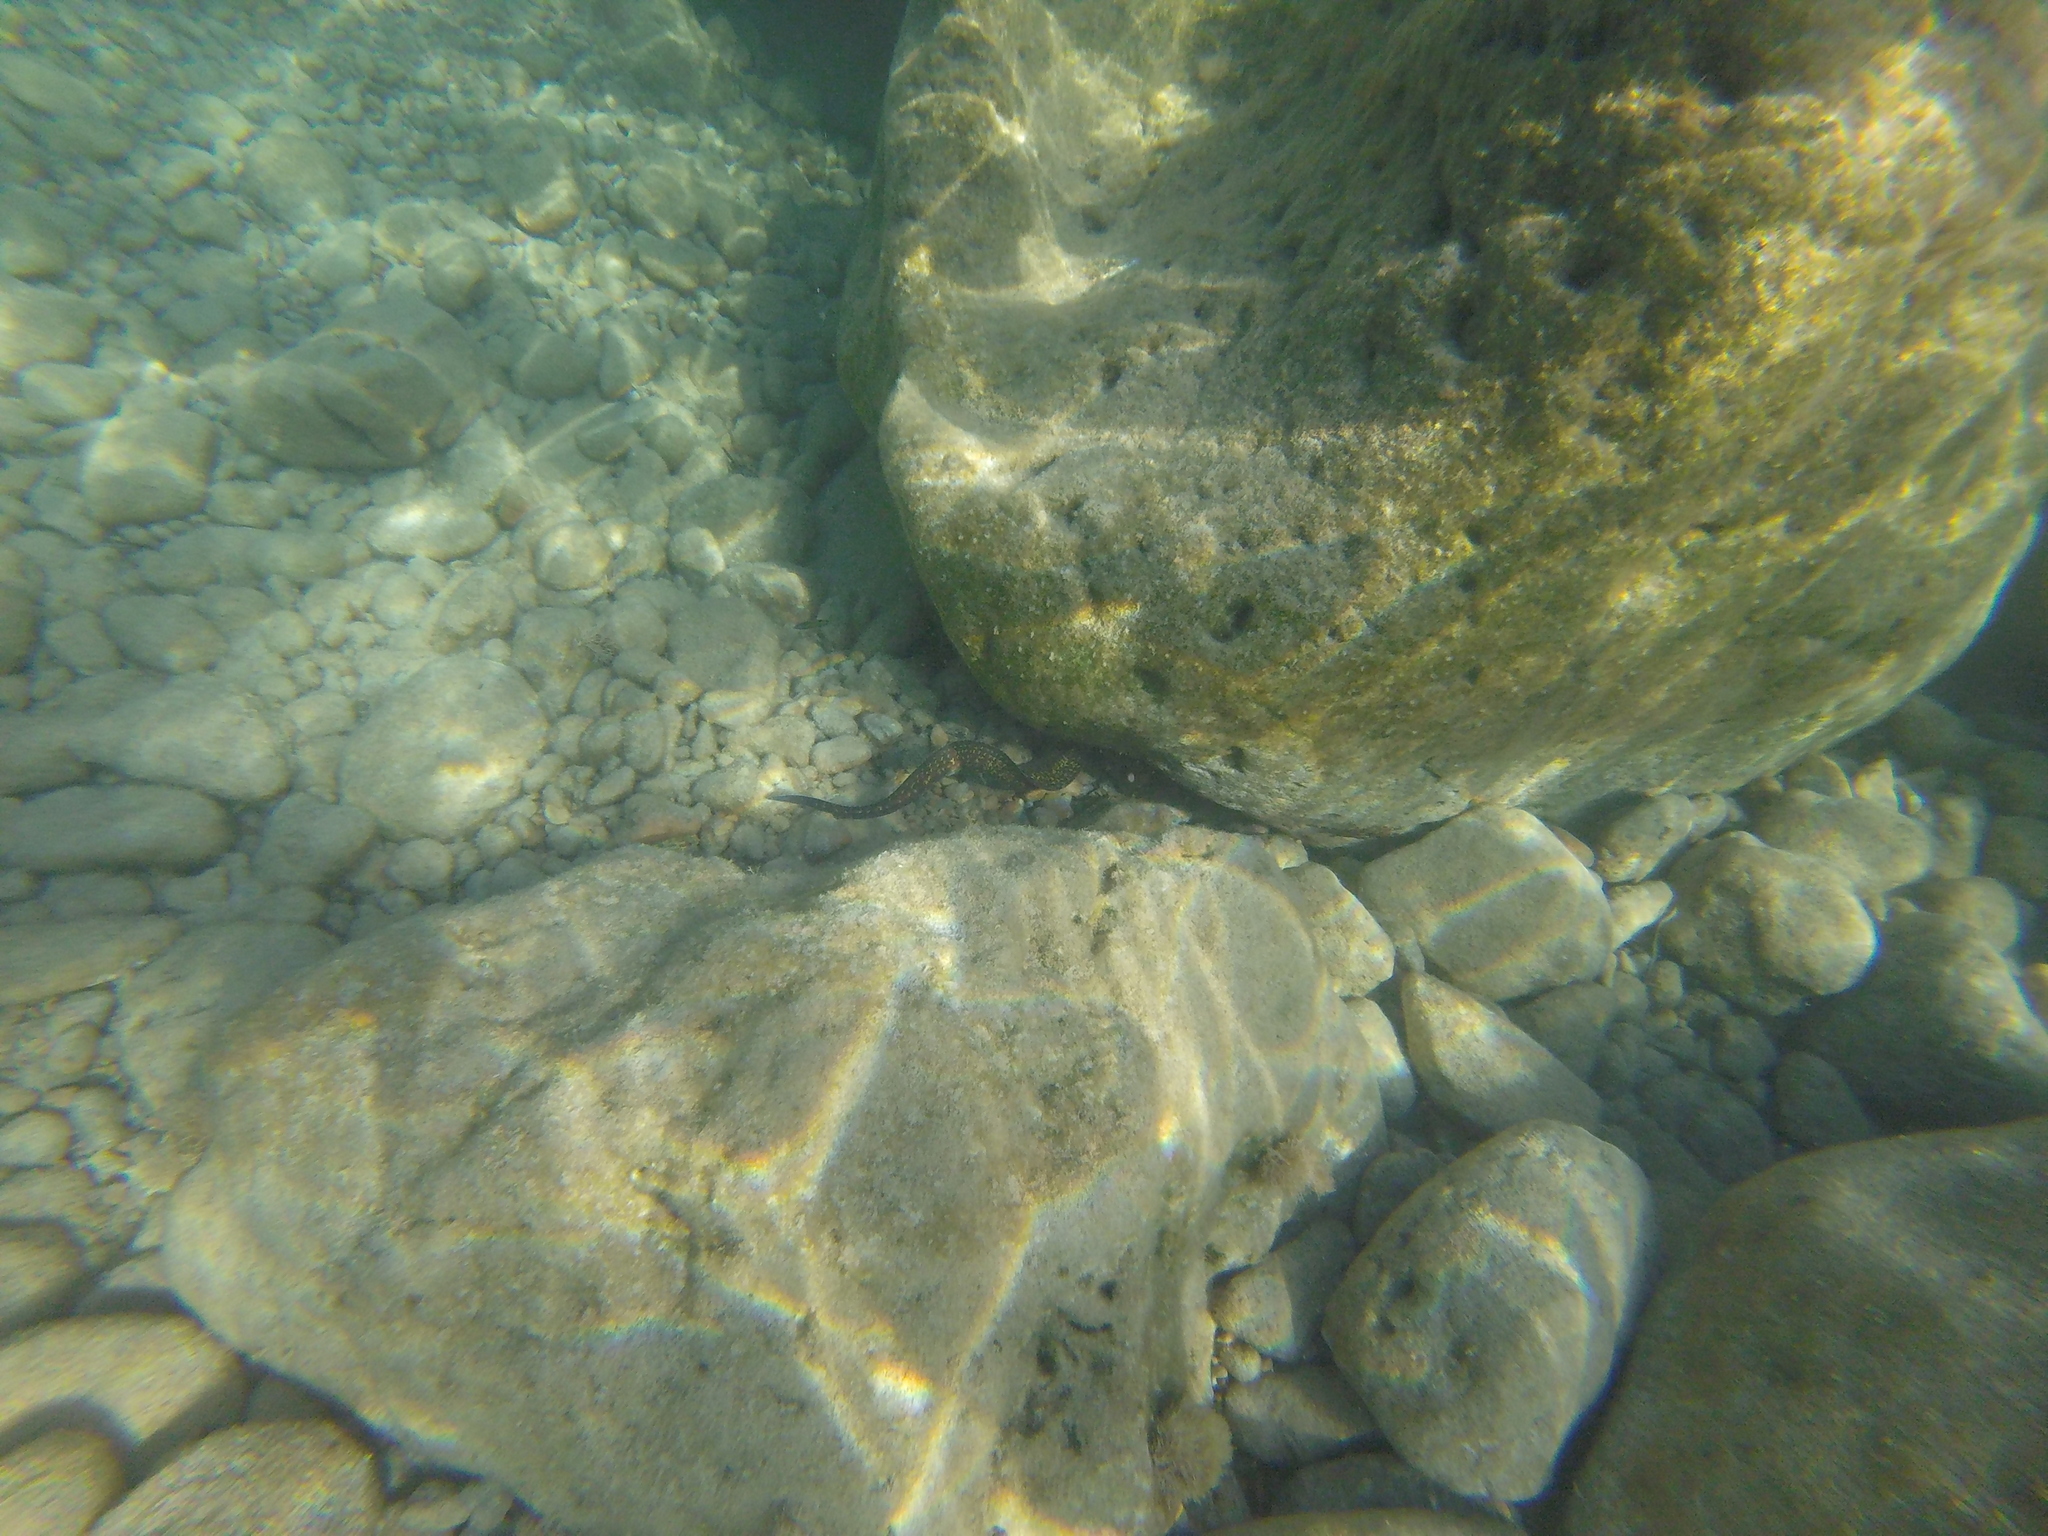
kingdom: Animalia
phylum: Chordata
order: Anguilliformes
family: Muraenidae
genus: Muraena
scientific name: Muraena helena
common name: Mediterranean moray
